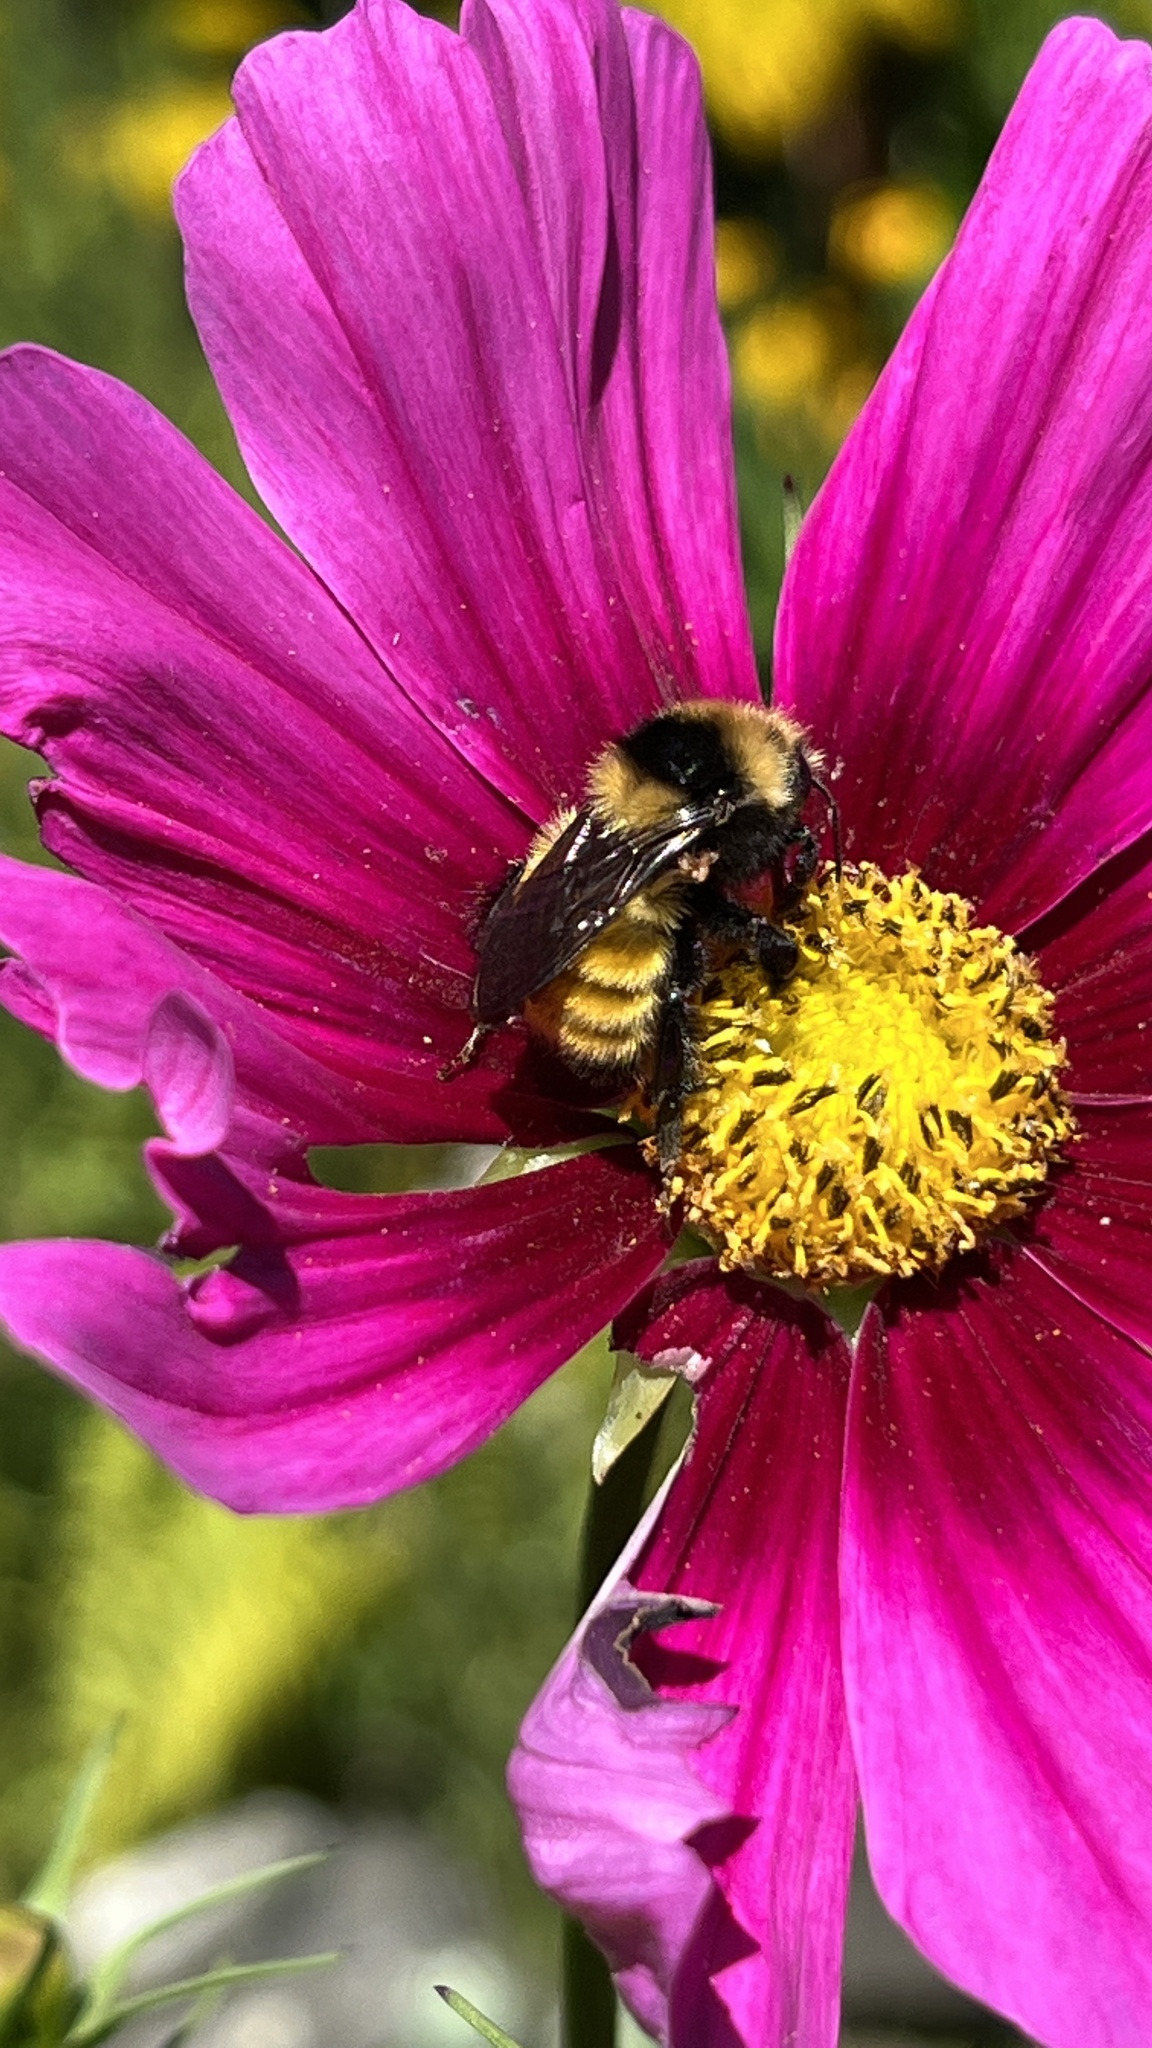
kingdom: Animalia
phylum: Arthropoda
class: Insecta
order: Hymenoptera
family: Apidae
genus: Bombus
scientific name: Bombus borealis
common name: Northern amber bumble bee
